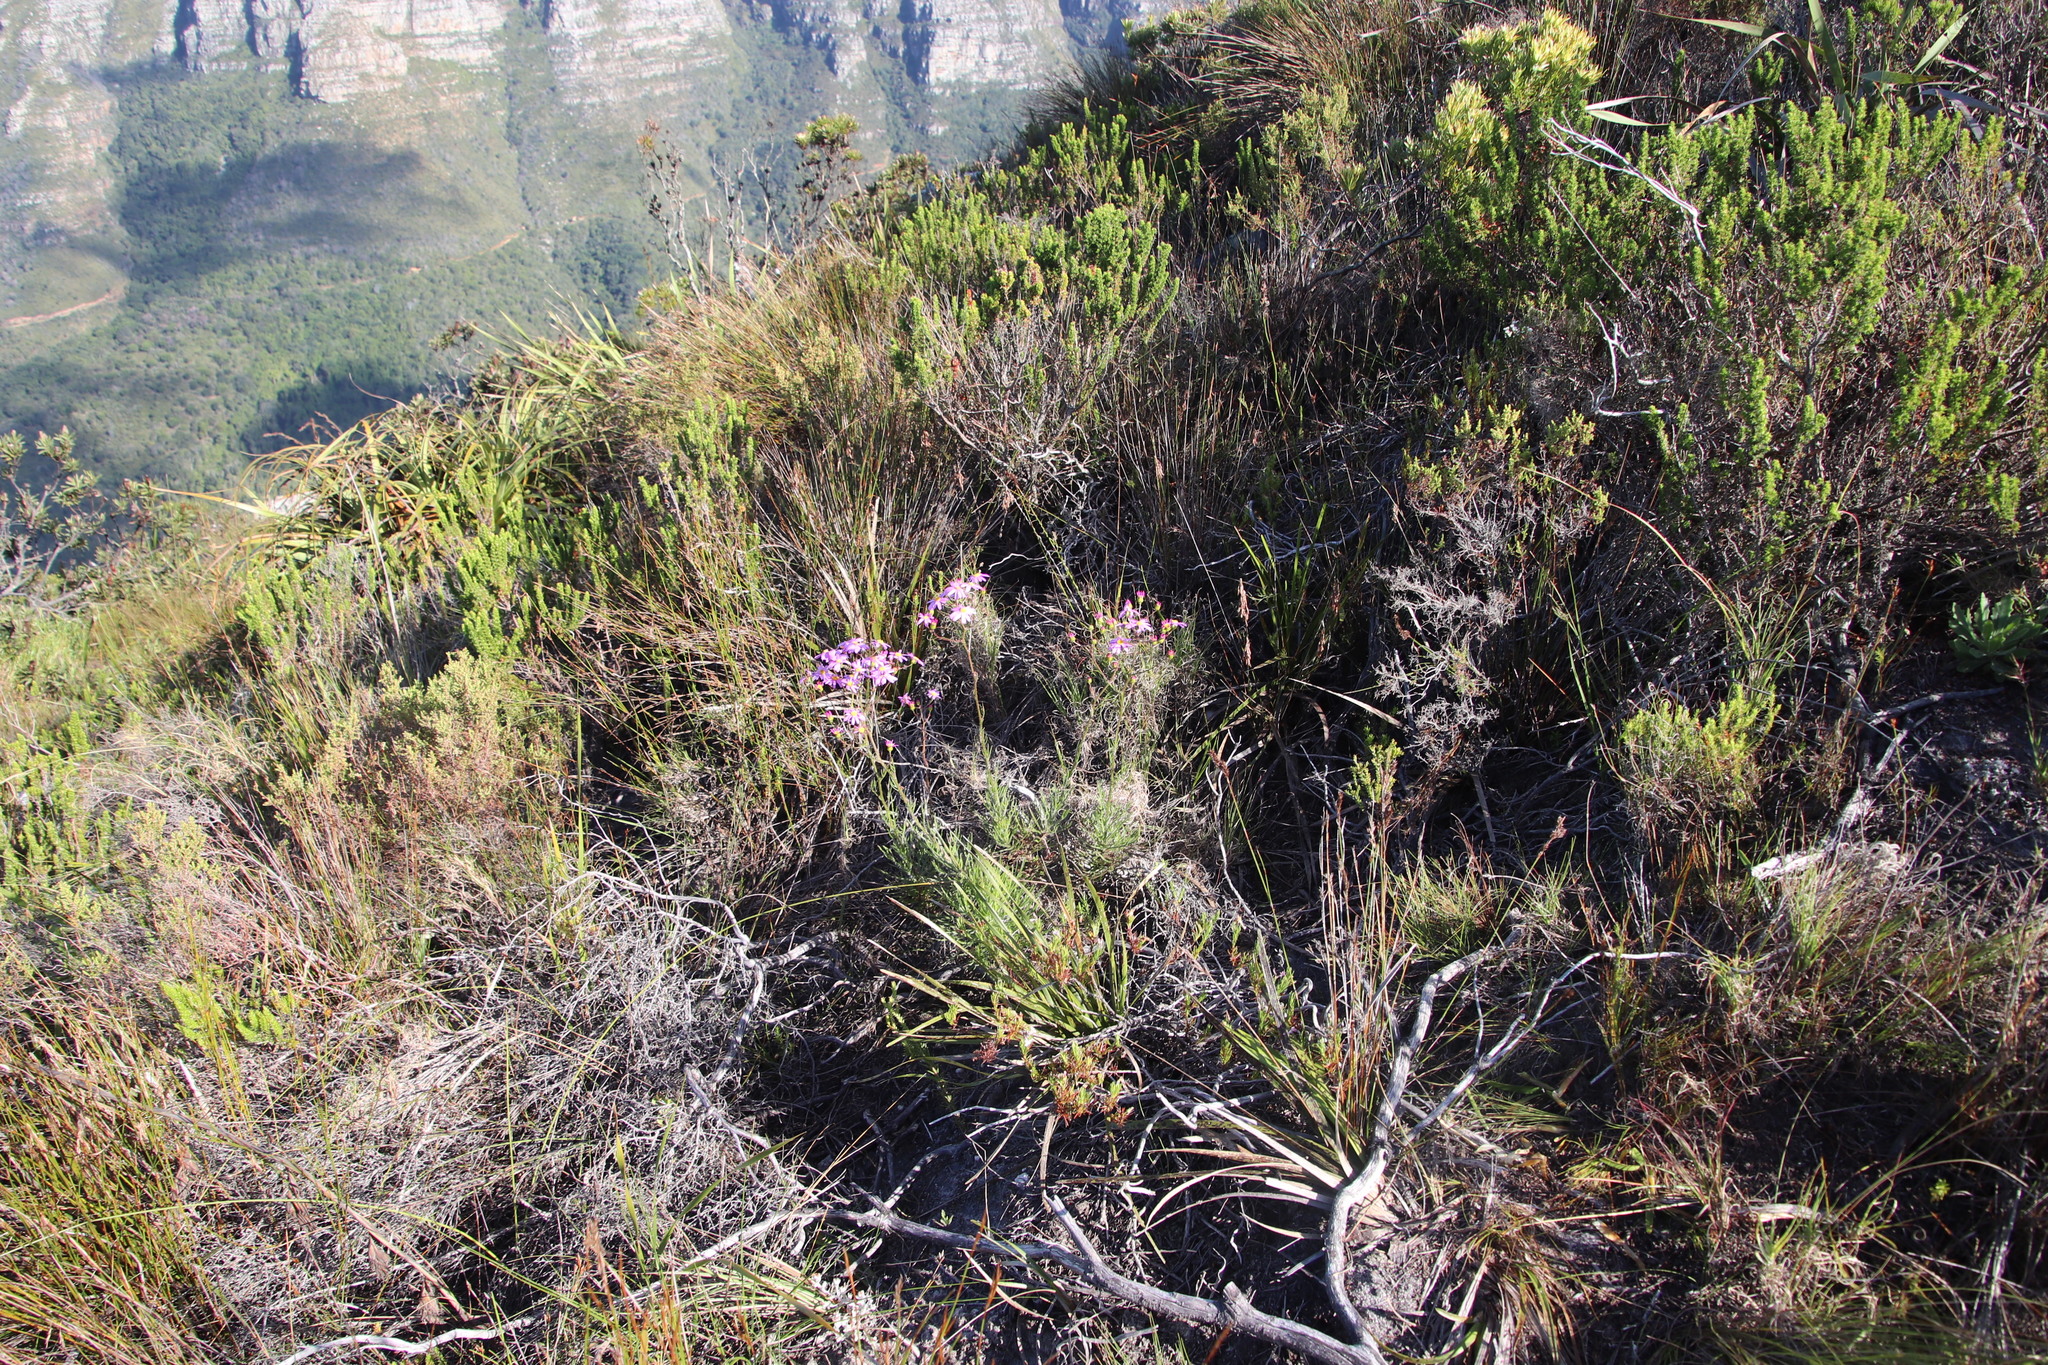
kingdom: Plantae
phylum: Tracheophyta
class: Magnoliopsida
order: Asterales
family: Asteraceae
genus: Senecio
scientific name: Senecio umbellatus
